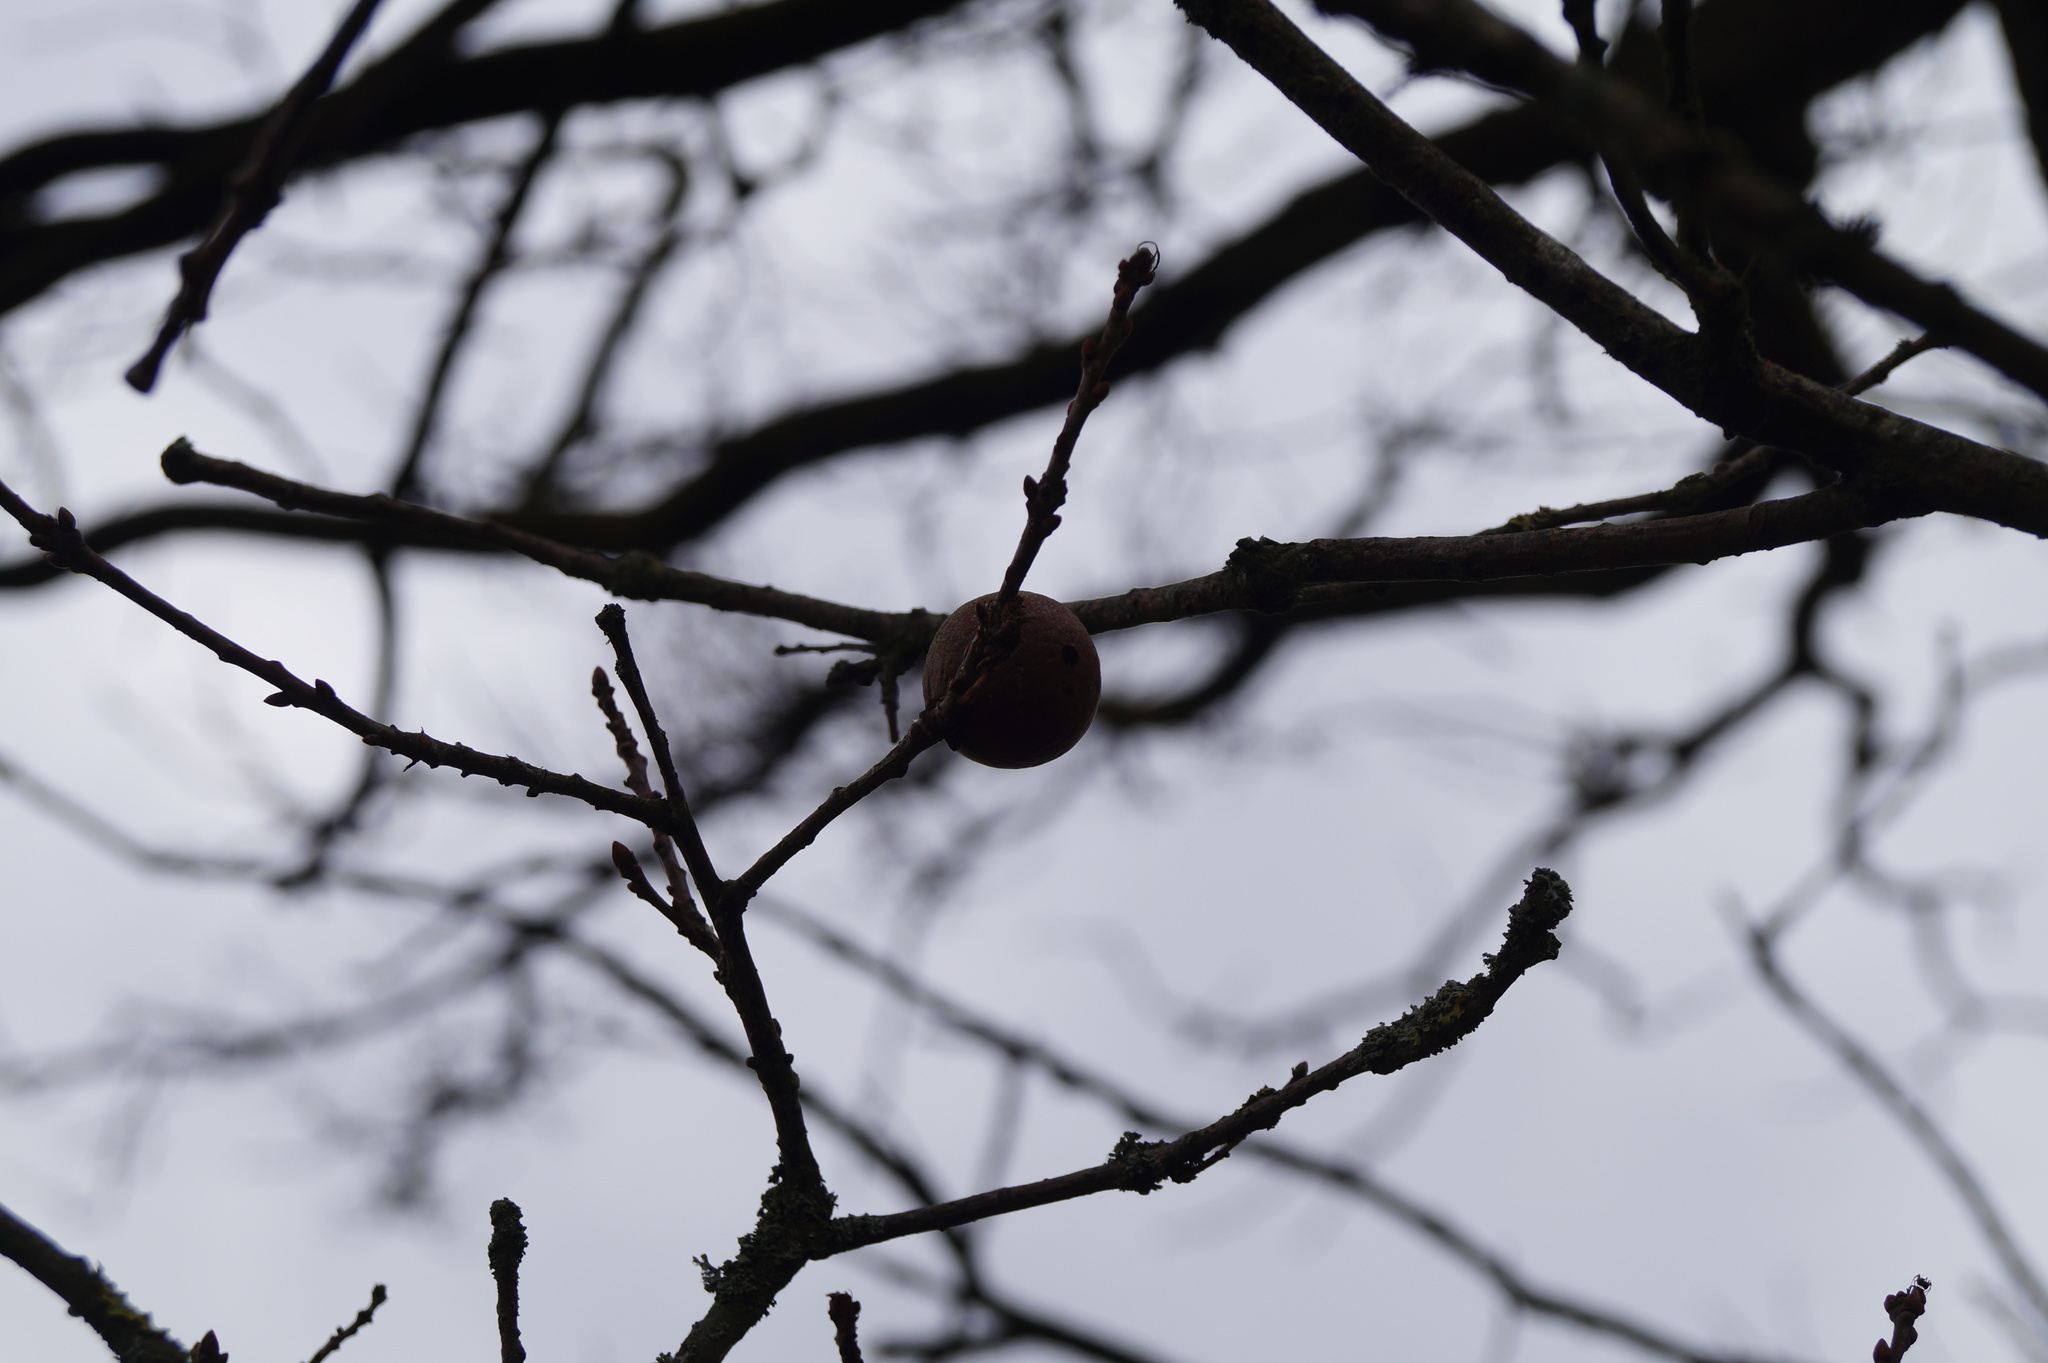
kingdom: Animalia
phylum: Arthropoda
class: Insecta
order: Hymenoptera
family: Cynipidae
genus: Andricus
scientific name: Andricus kollari
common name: Marble gall
